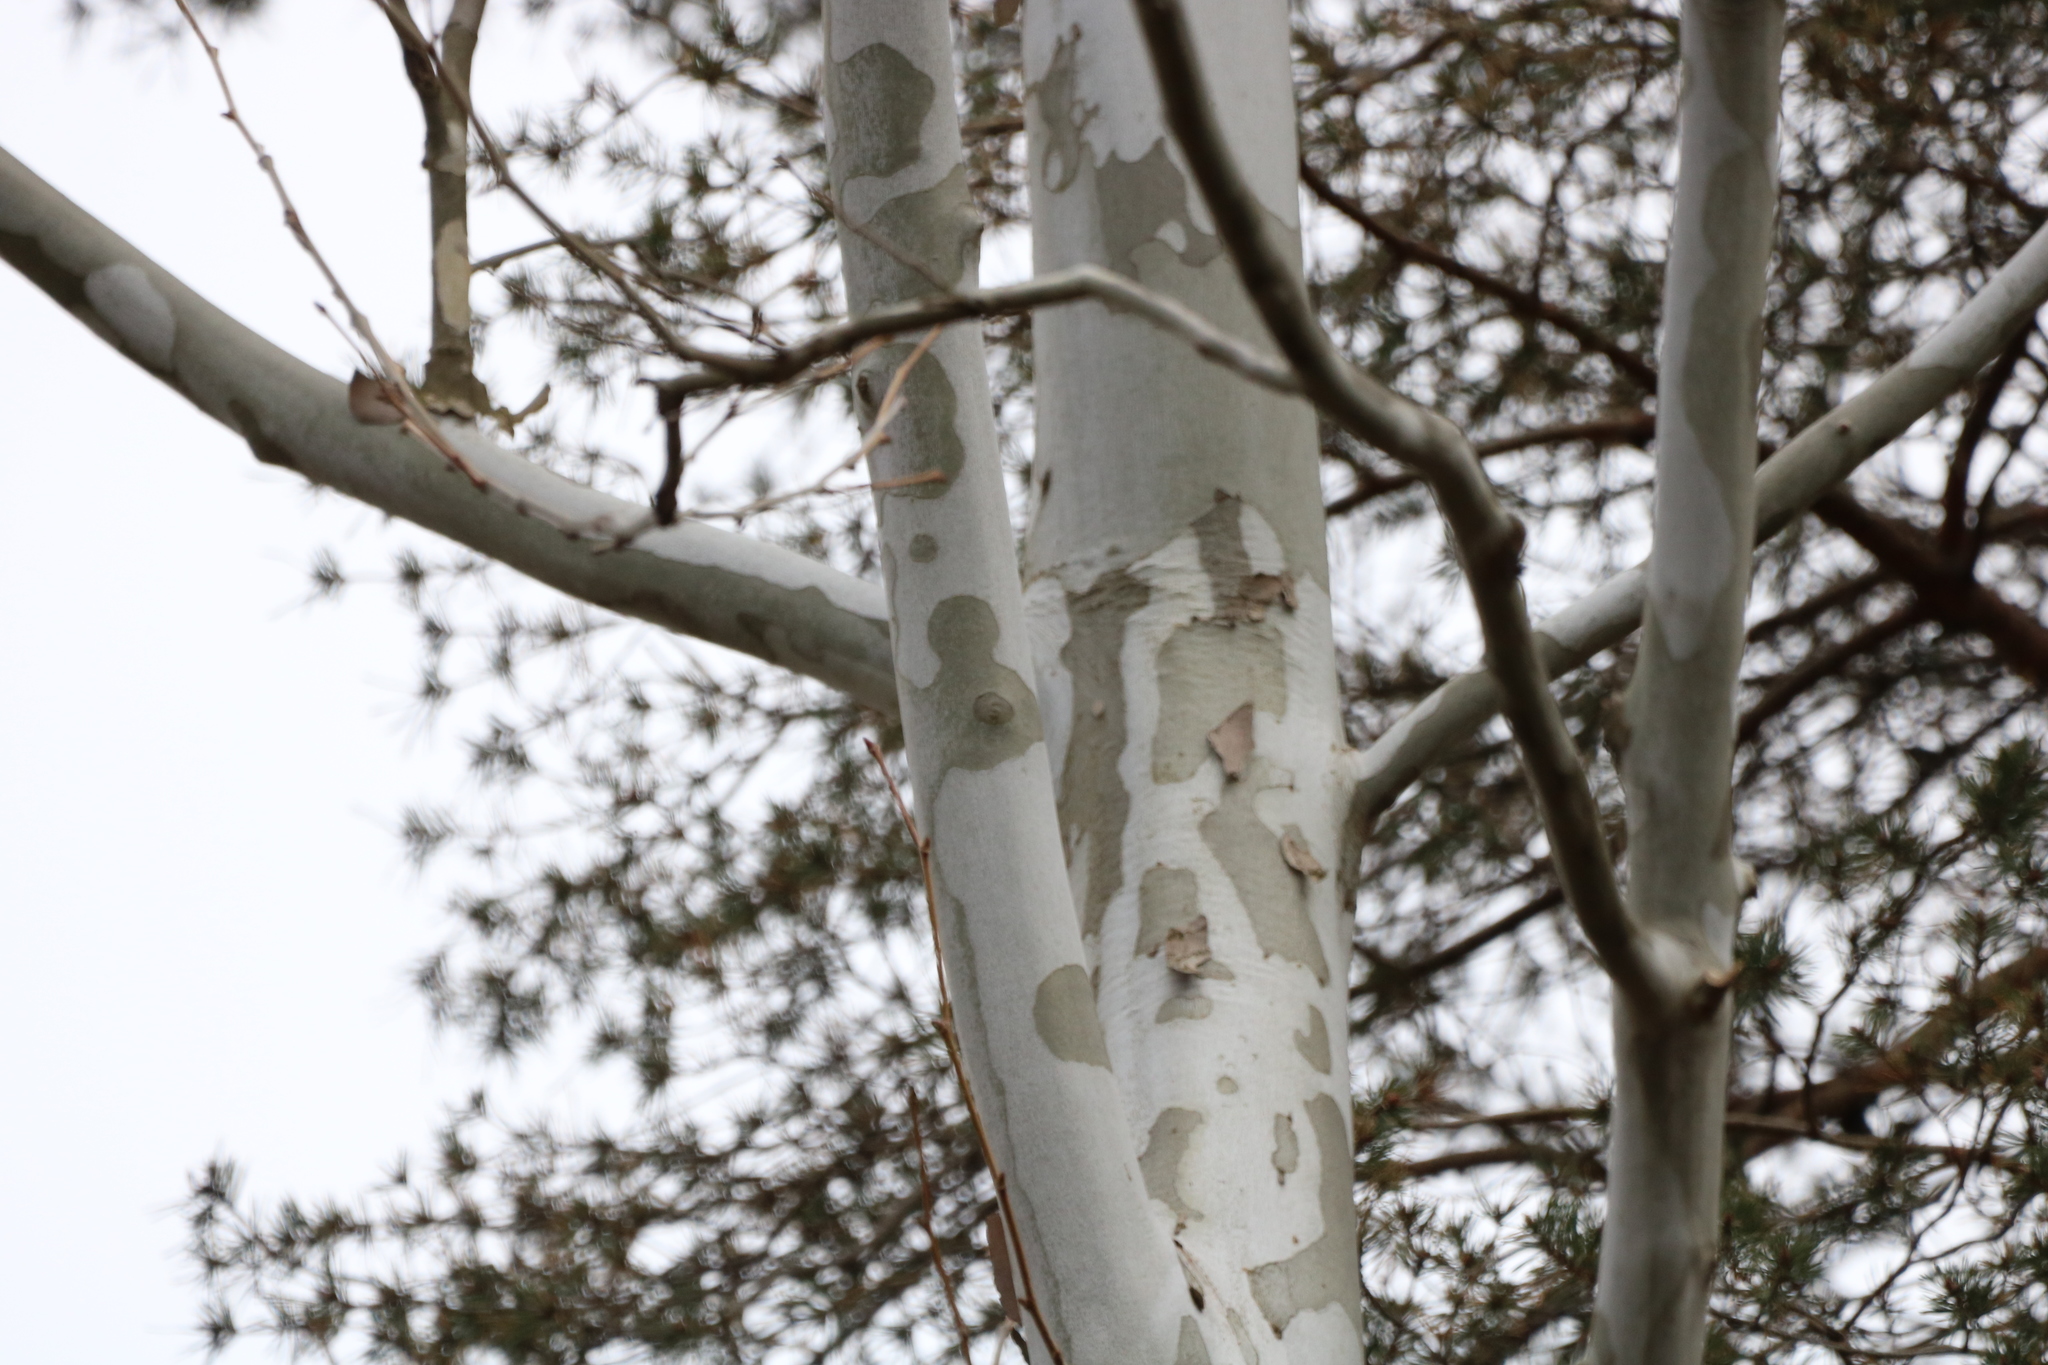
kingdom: Plantae
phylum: Tracheophyta
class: Magnoliopsida
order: Proteales
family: Platanaceae
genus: Platanus
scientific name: Platanus occidentalis
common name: American sycamore
